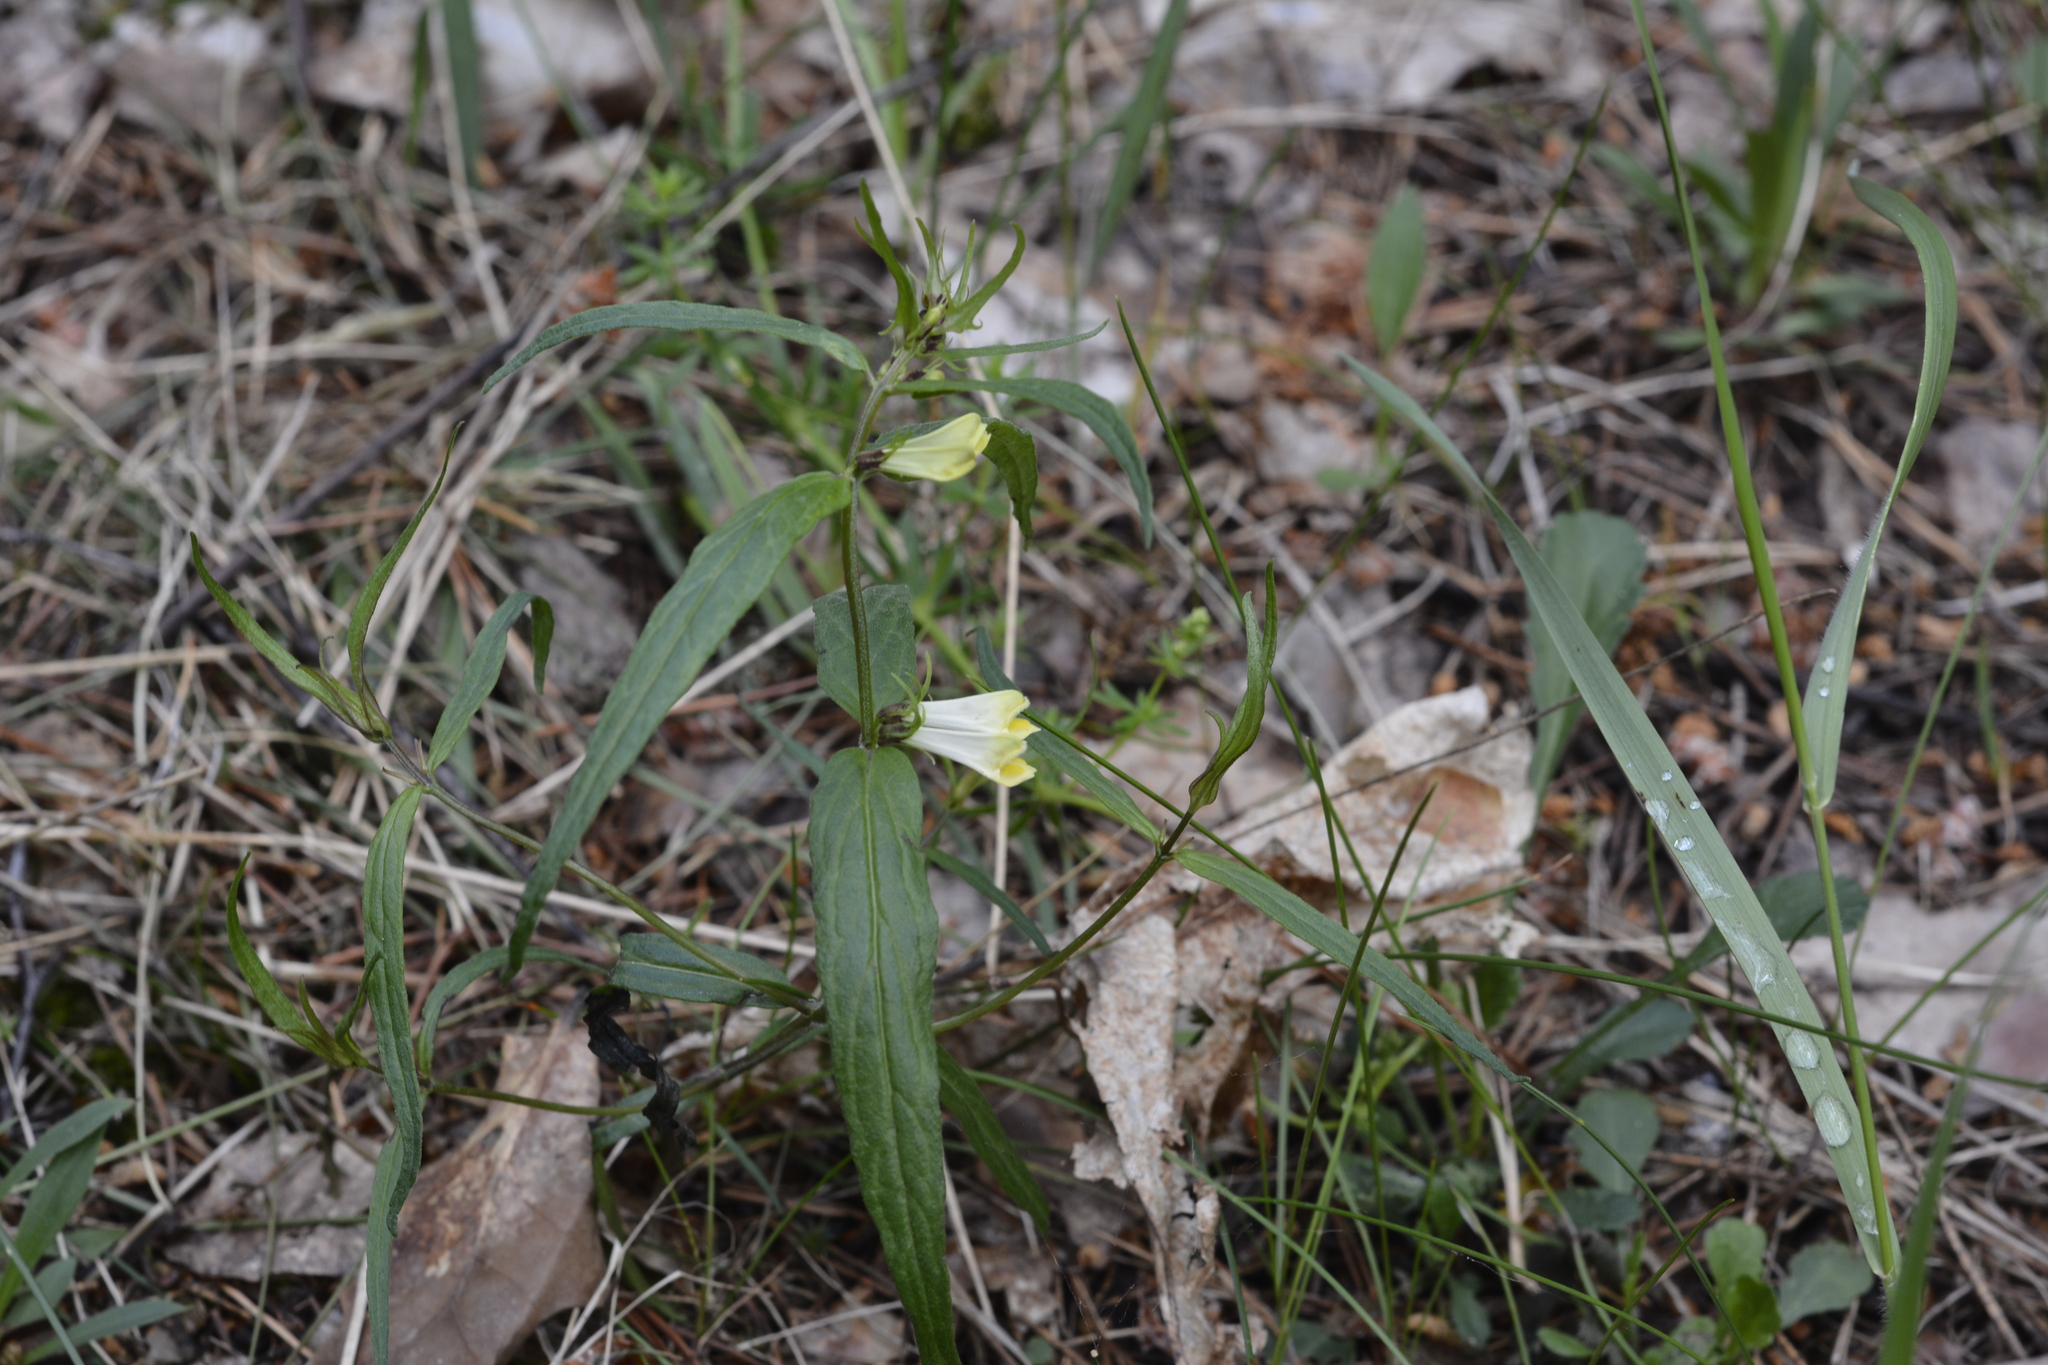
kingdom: Plantae
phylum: Tracheophyta
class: Magnoliopsida
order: Lamiales
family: Orobanchaceae
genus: Melampyrum
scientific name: Melampyrum pratense
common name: Common cow-wheat
